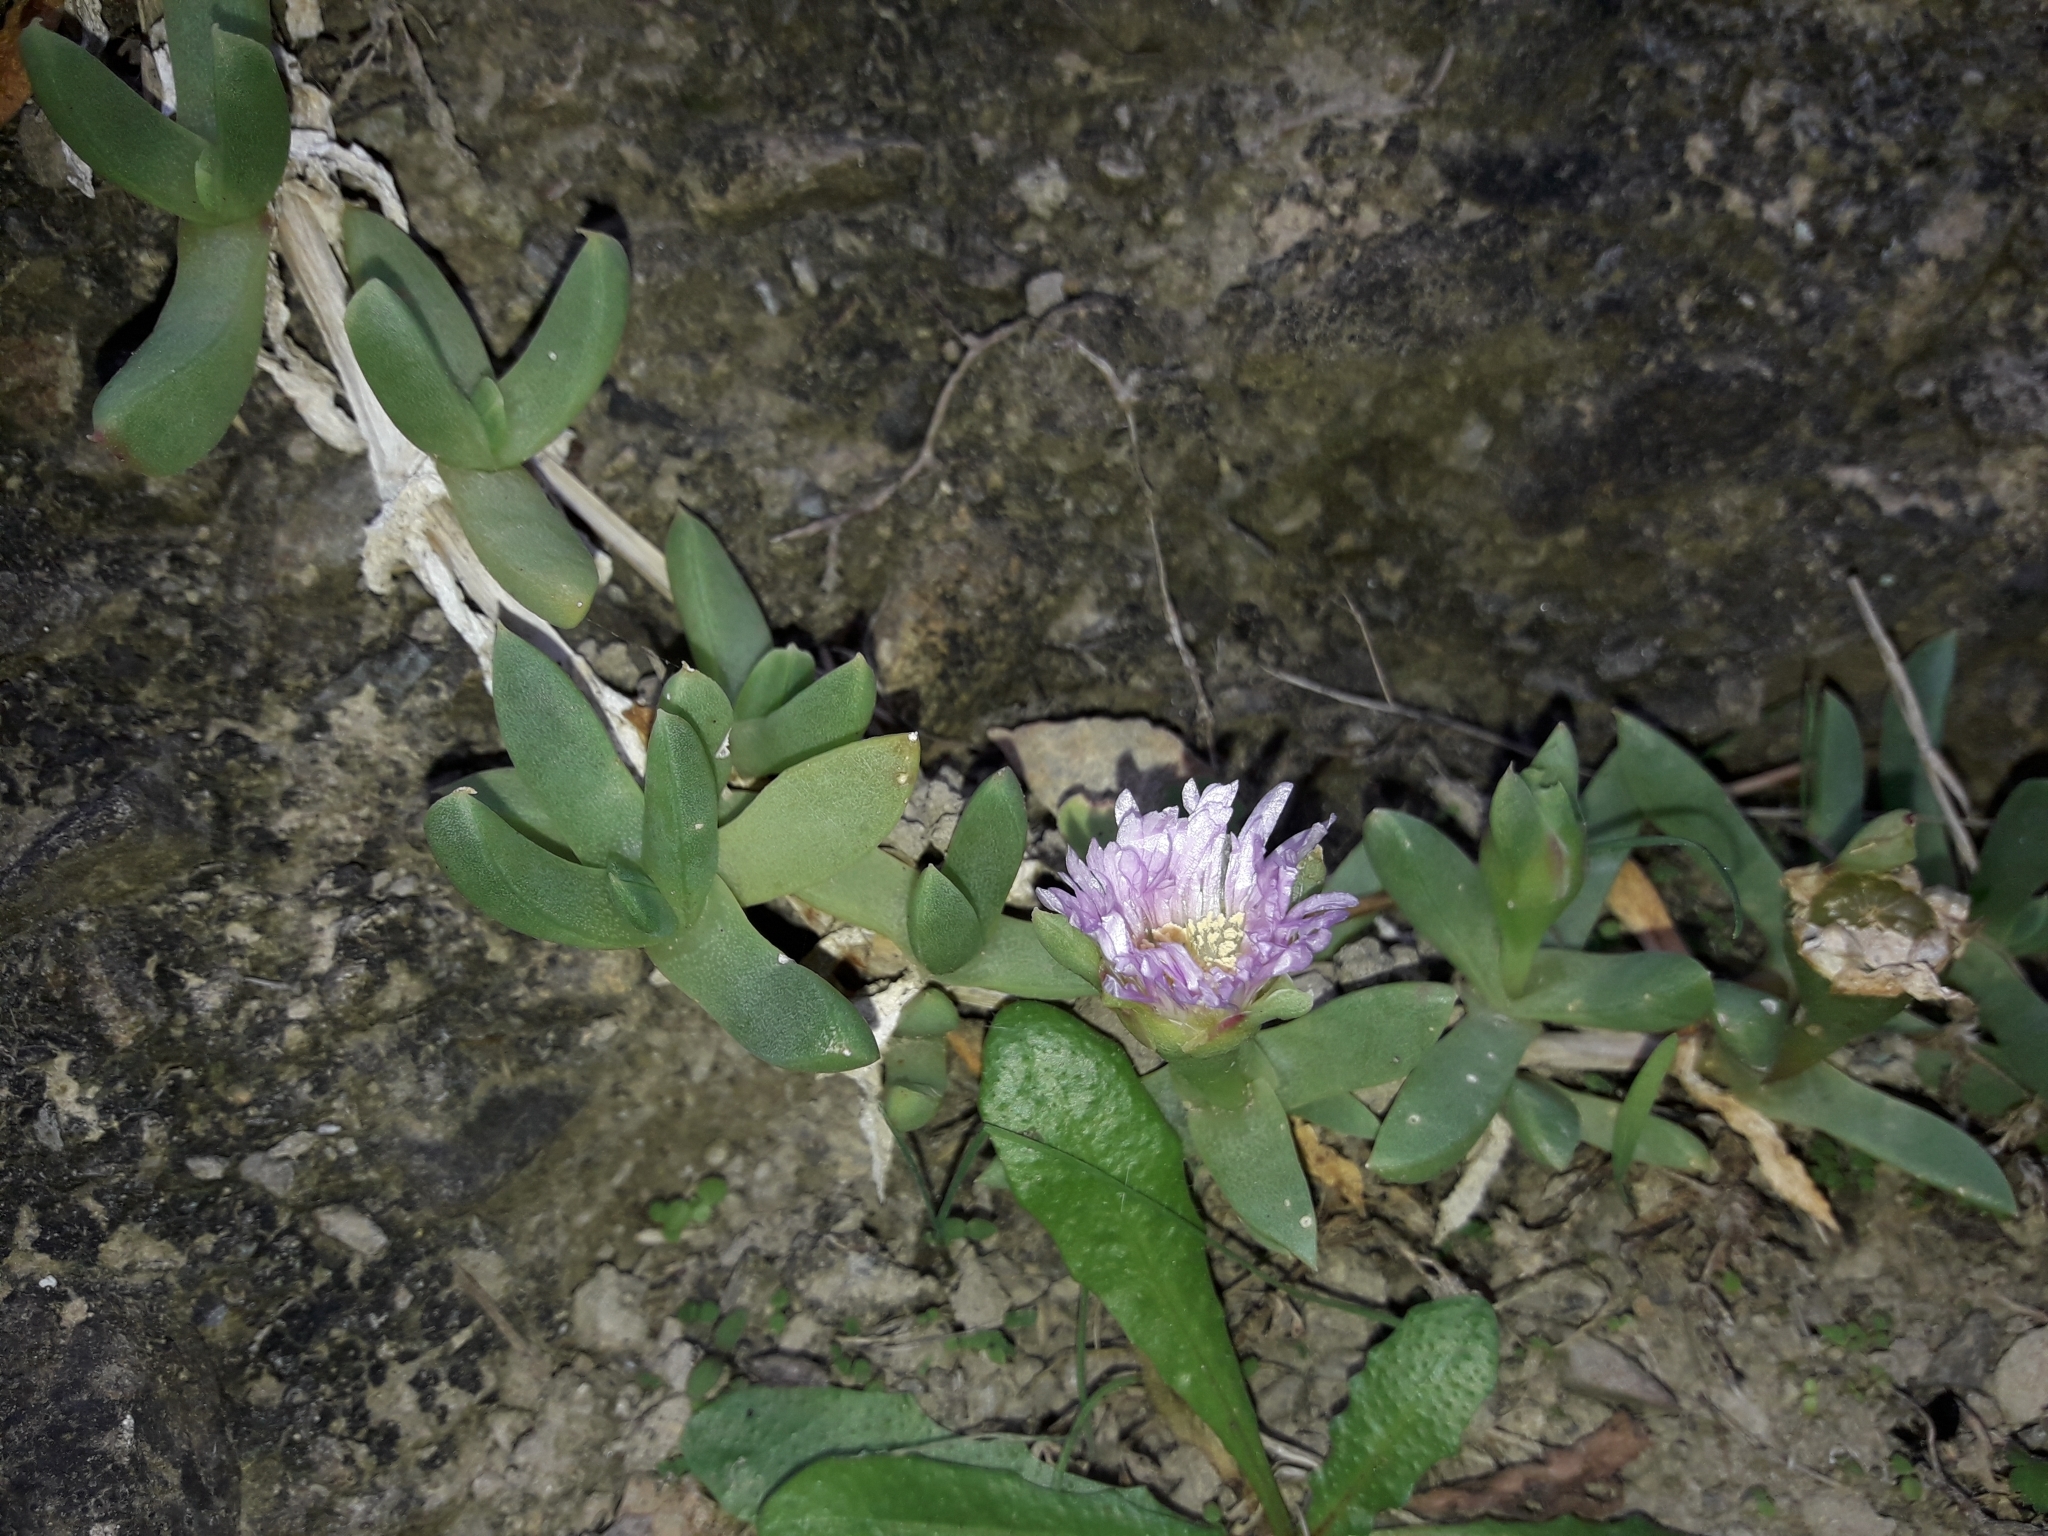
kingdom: Plantae
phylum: Tracheophyta
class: Magnoliopsida
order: Caryophyllales
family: Aizoaceae
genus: Disphyma
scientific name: Disphyma australe
